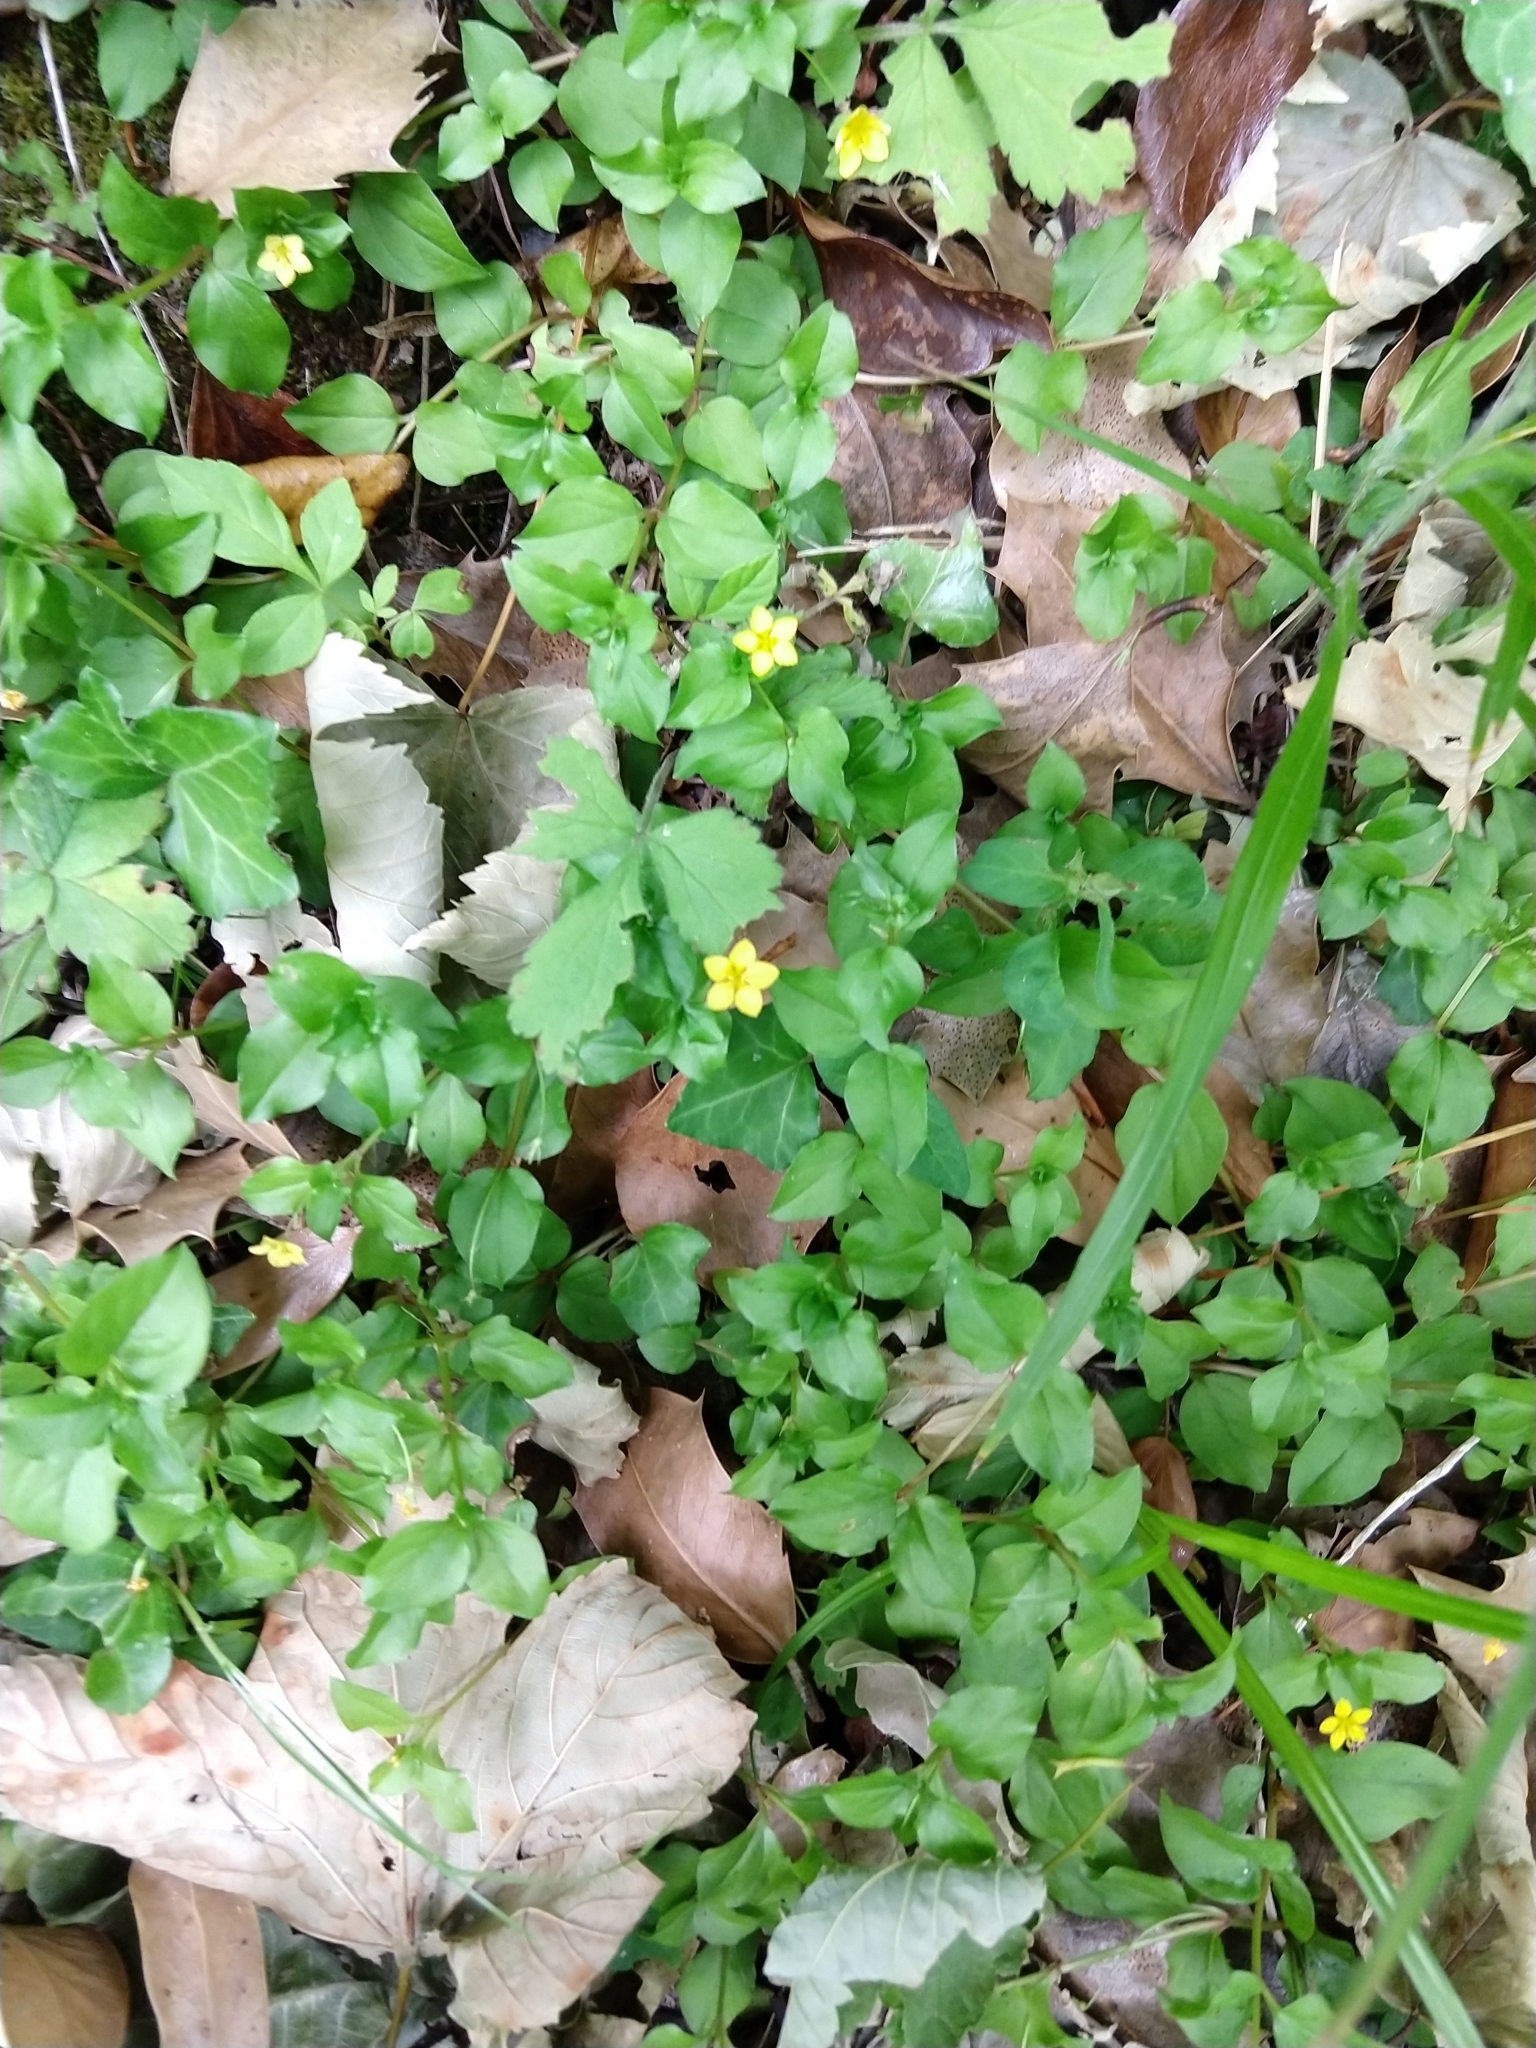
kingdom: Plantae
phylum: Tracheophyta
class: Magnoliopsida
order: Ericales
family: Primulaceae
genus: Lysimachia
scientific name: Lysimachia nemorum
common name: Yellow pimpernel
